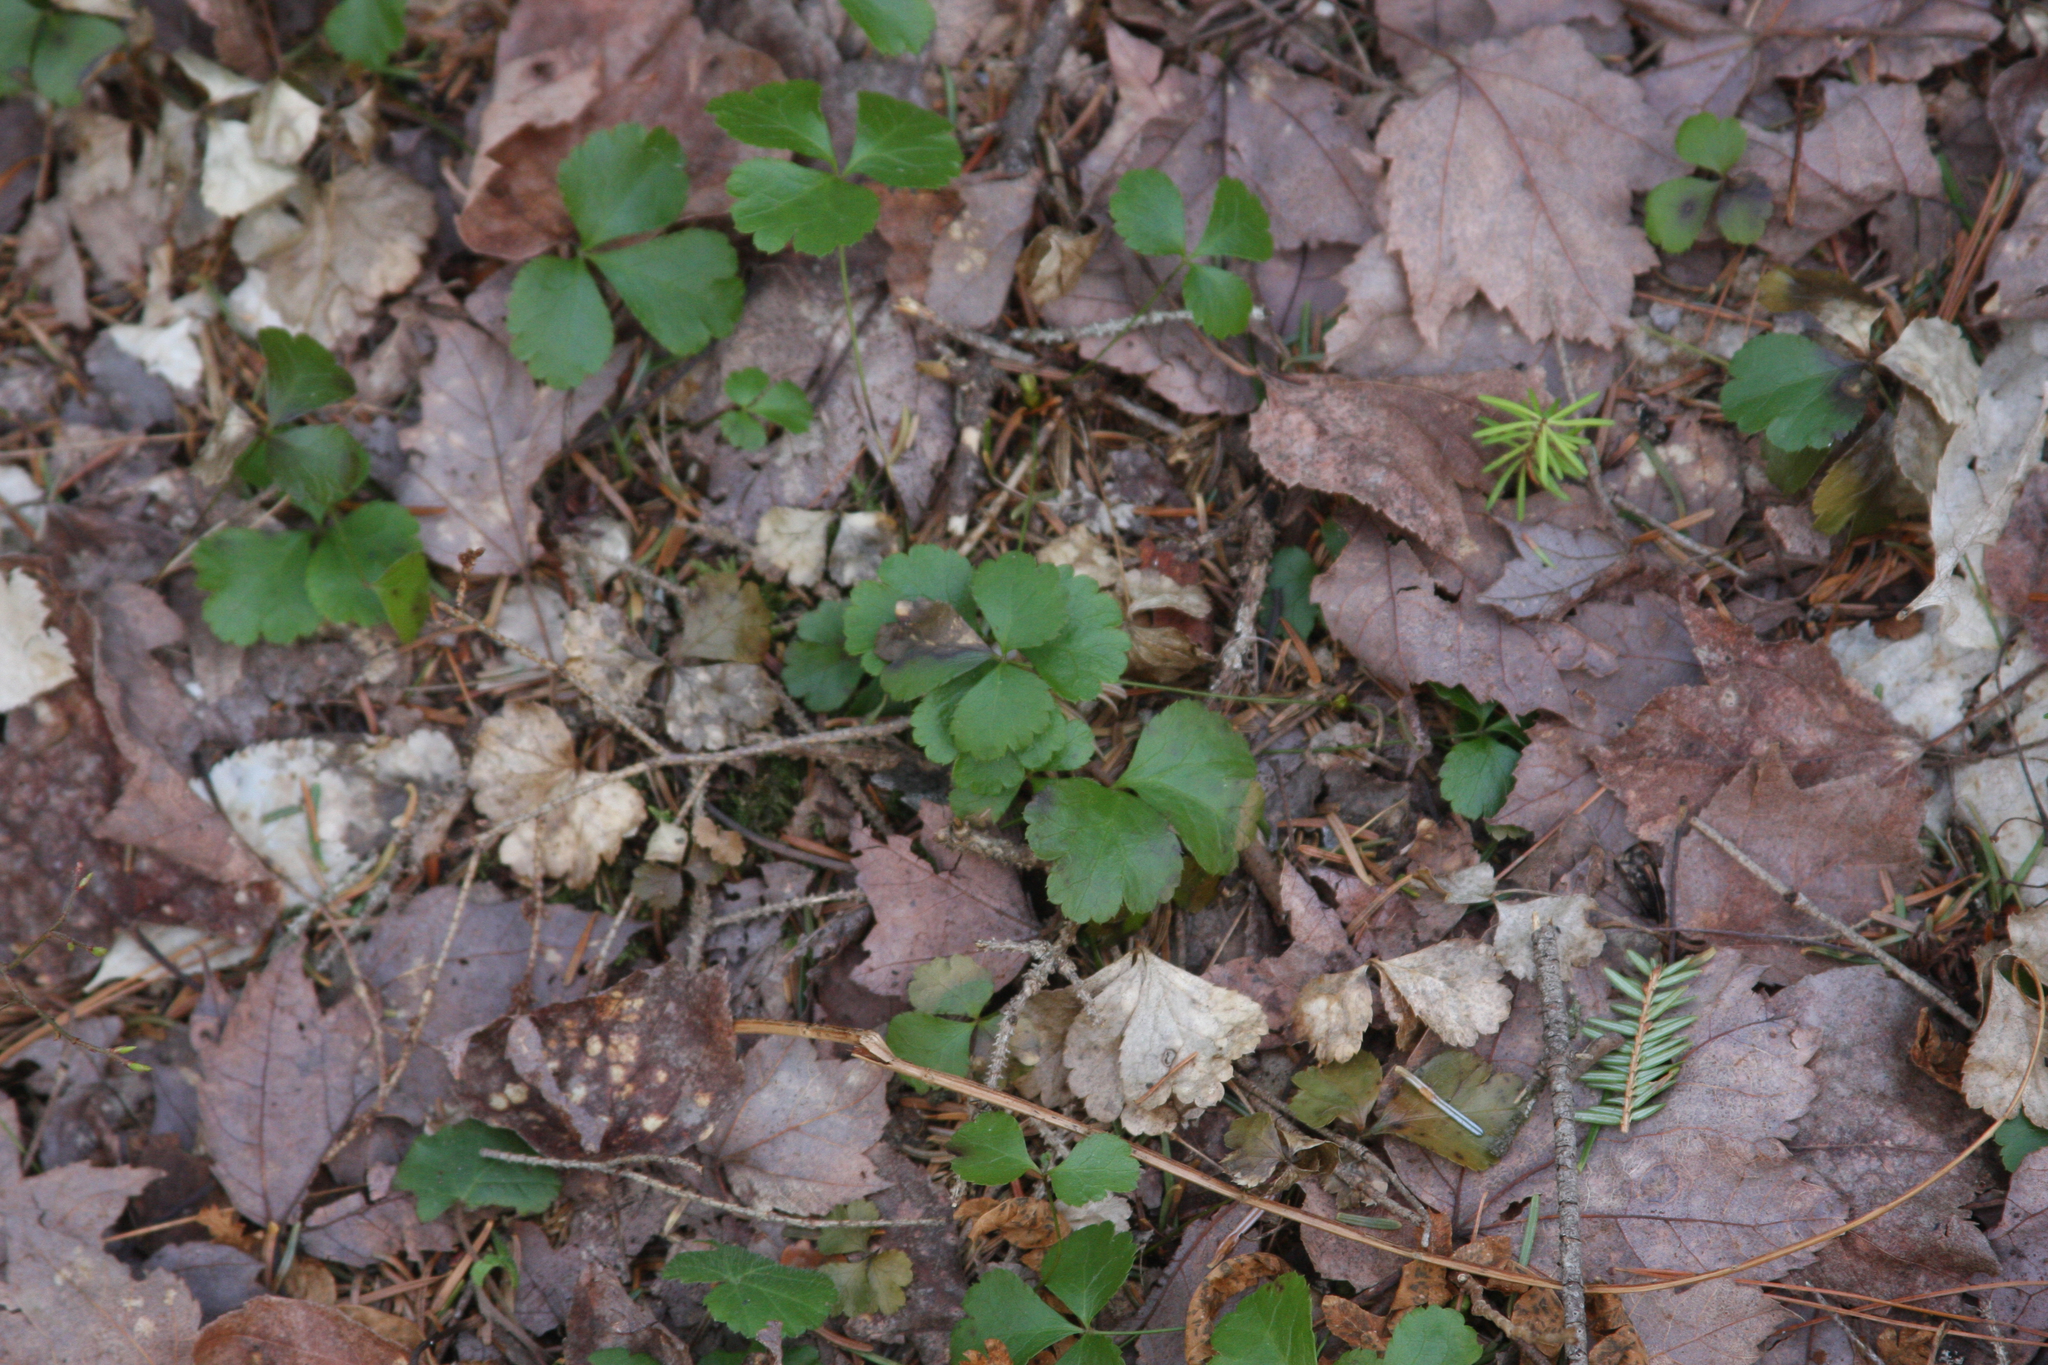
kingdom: Plantae
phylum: Tracheophyta
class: Magnoliopsida
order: Ranunculales
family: Ranunculaceae
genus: Coptis
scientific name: Coptis trifolia
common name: Canker-root
